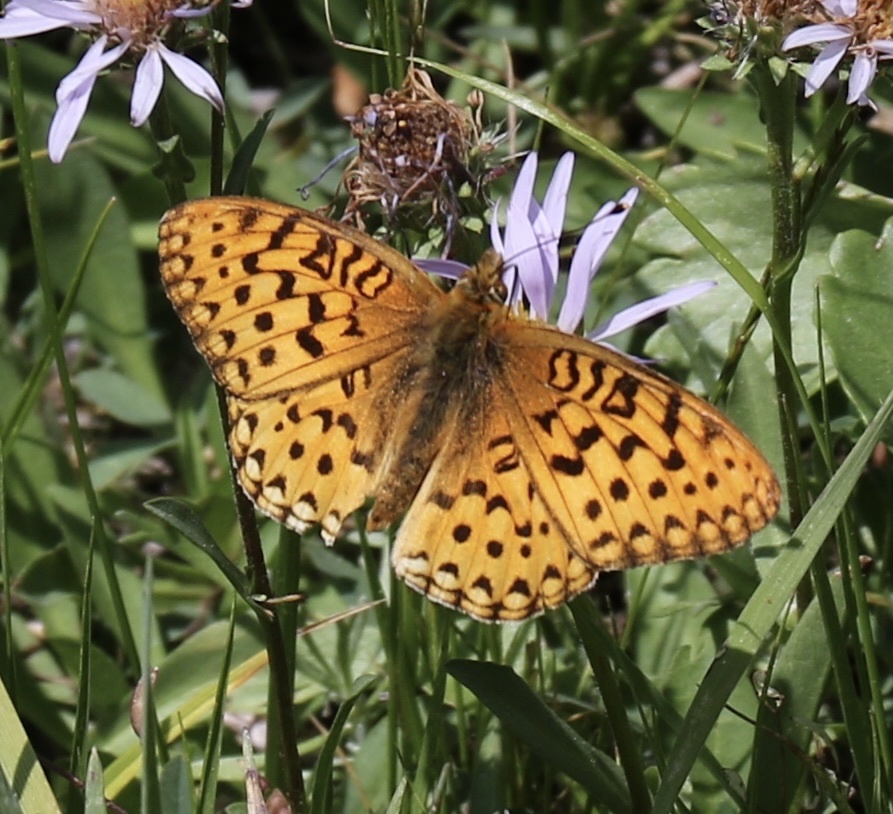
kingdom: Animalia
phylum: Arthropoda
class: Insecta
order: Lepidoptera
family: Nymphalidae
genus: Speyeria
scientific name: Speyeria mormonia
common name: Mormon fritillary
